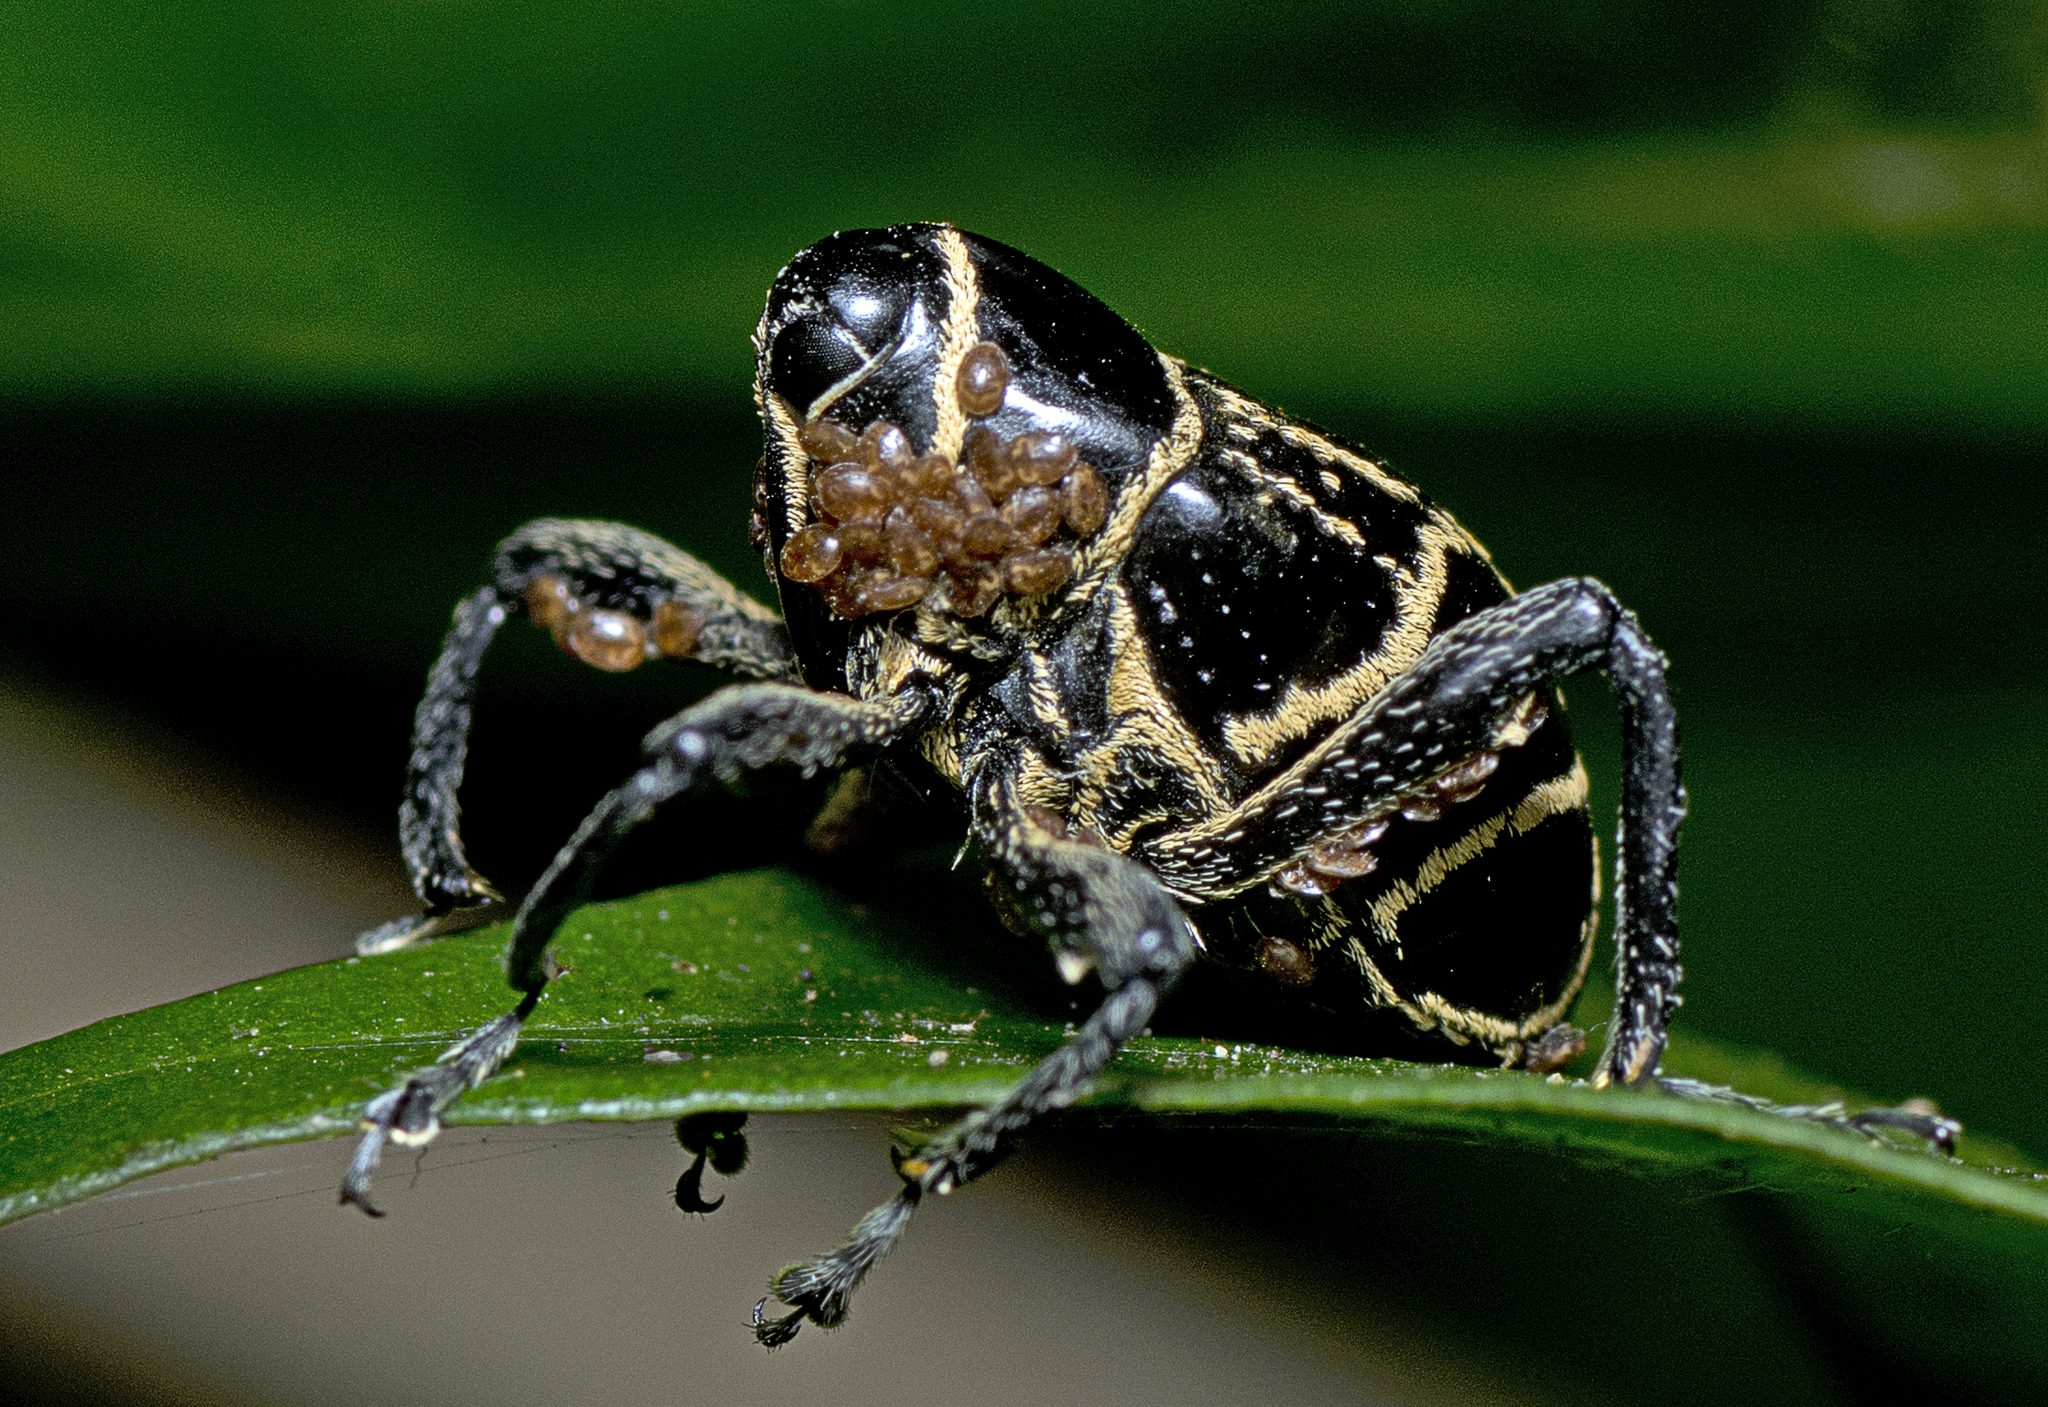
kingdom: Animalia
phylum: Arthropoda
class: Insecta
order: Coleoptera
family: Curculionidae
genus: Enteles
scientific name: Enteles vigorsii
